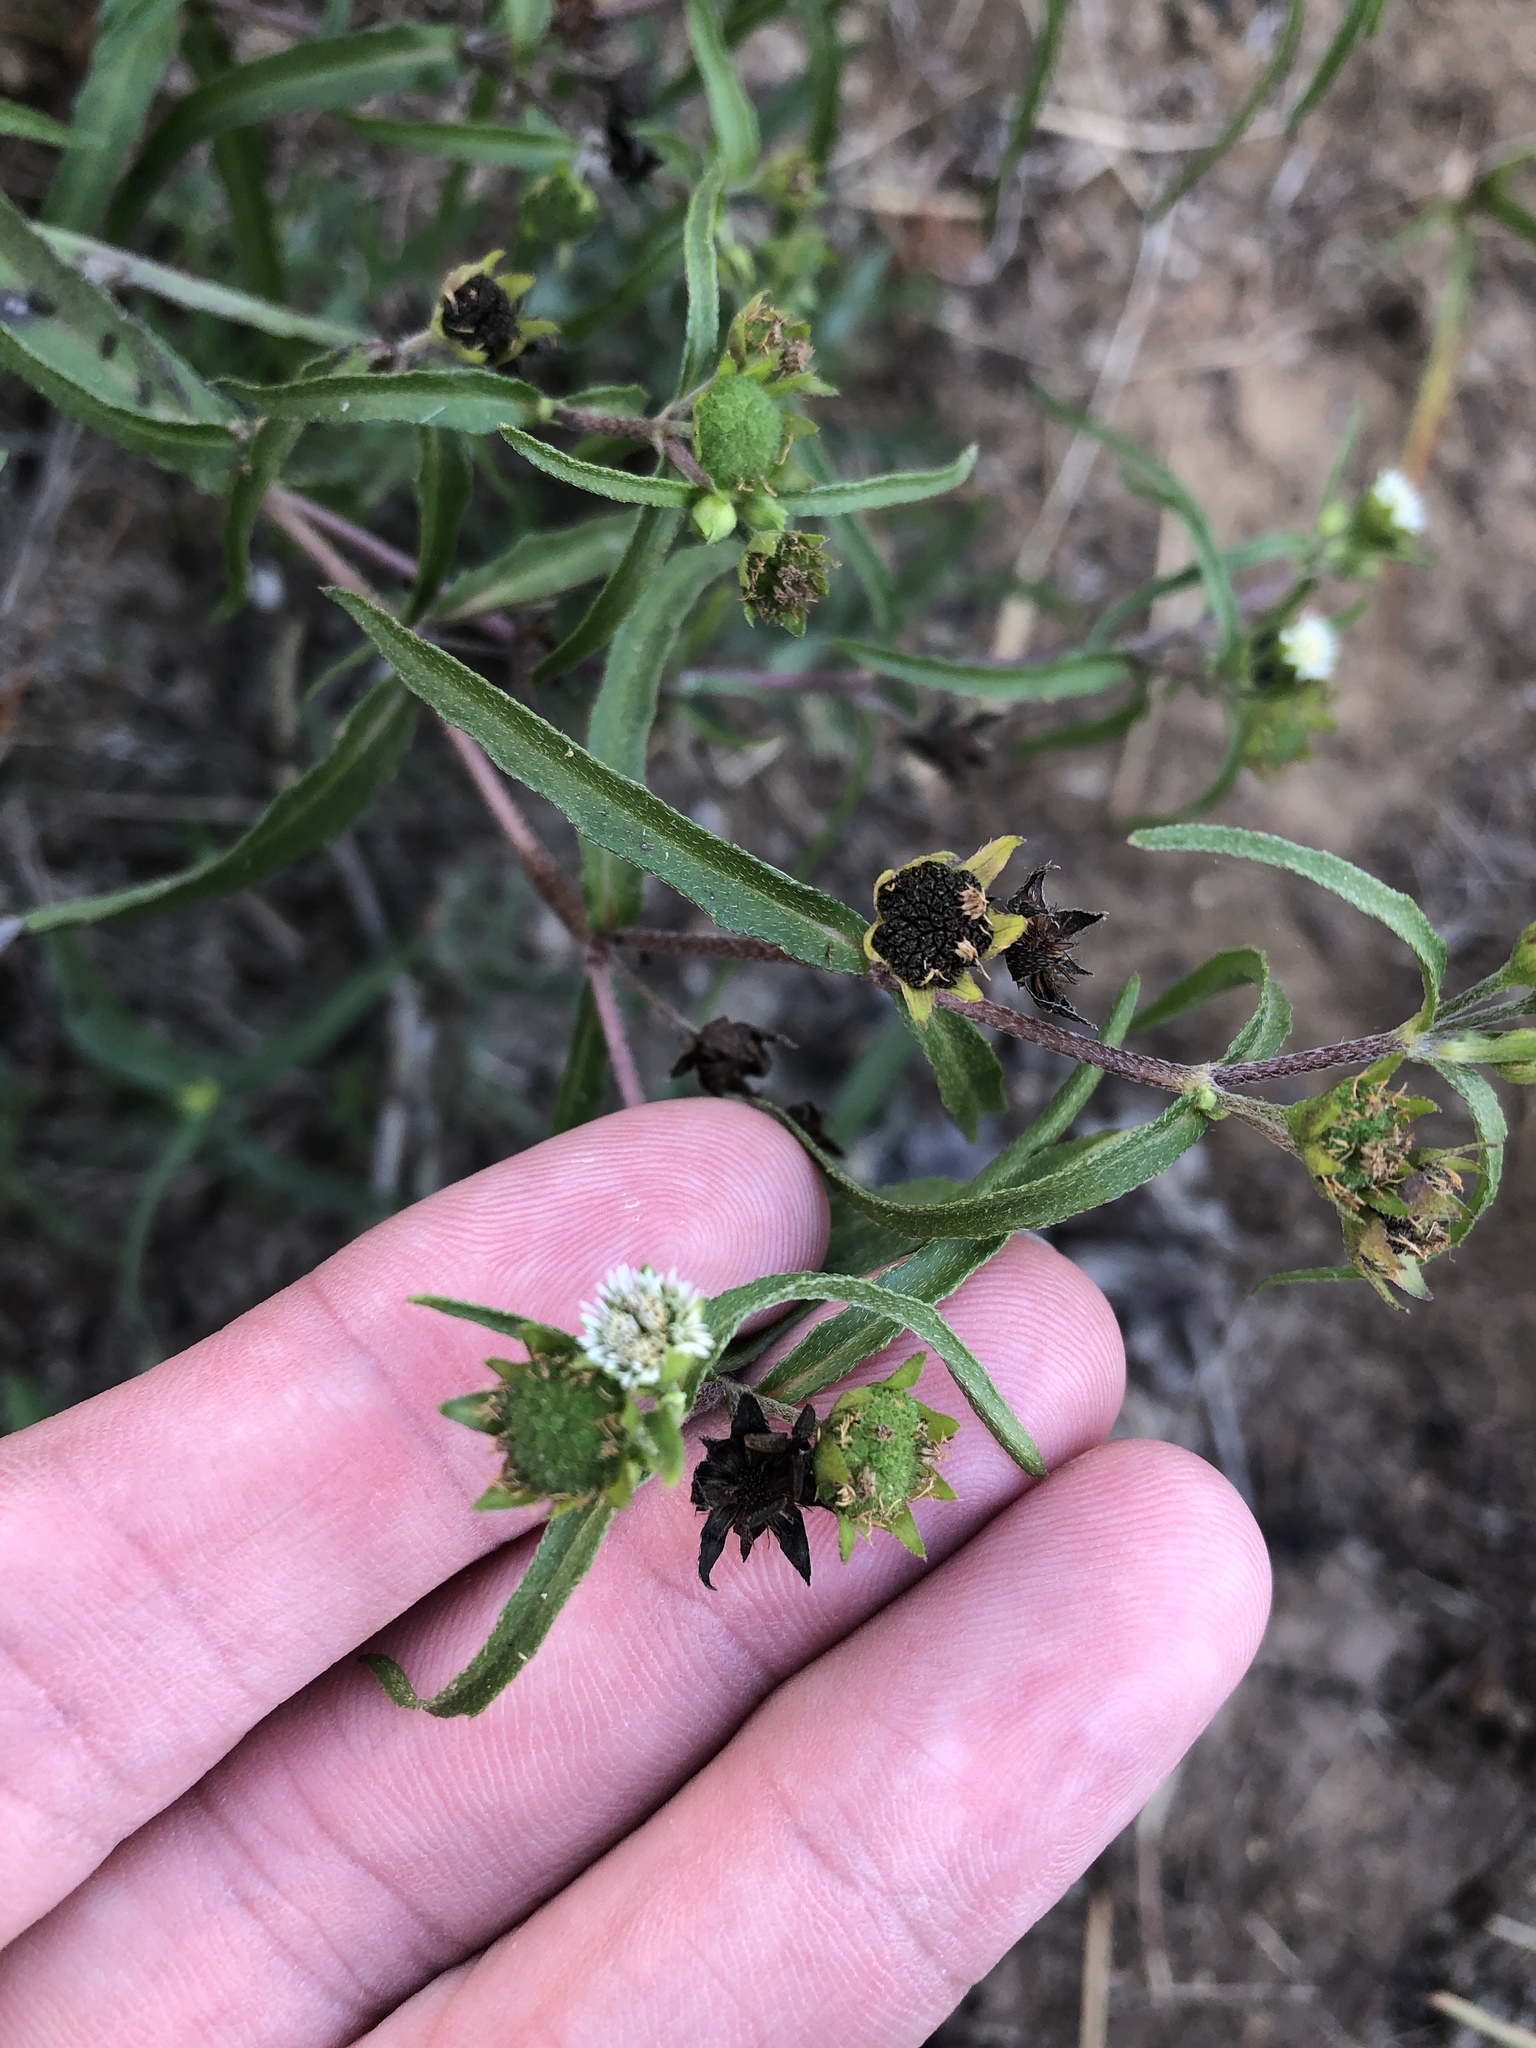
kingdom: Plantae
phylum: Tracheophyta
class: Magnoliopsida
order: Asterales
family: Asteraceae
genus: Eclipta
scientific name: Eclipta prostrata
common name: False daisy
